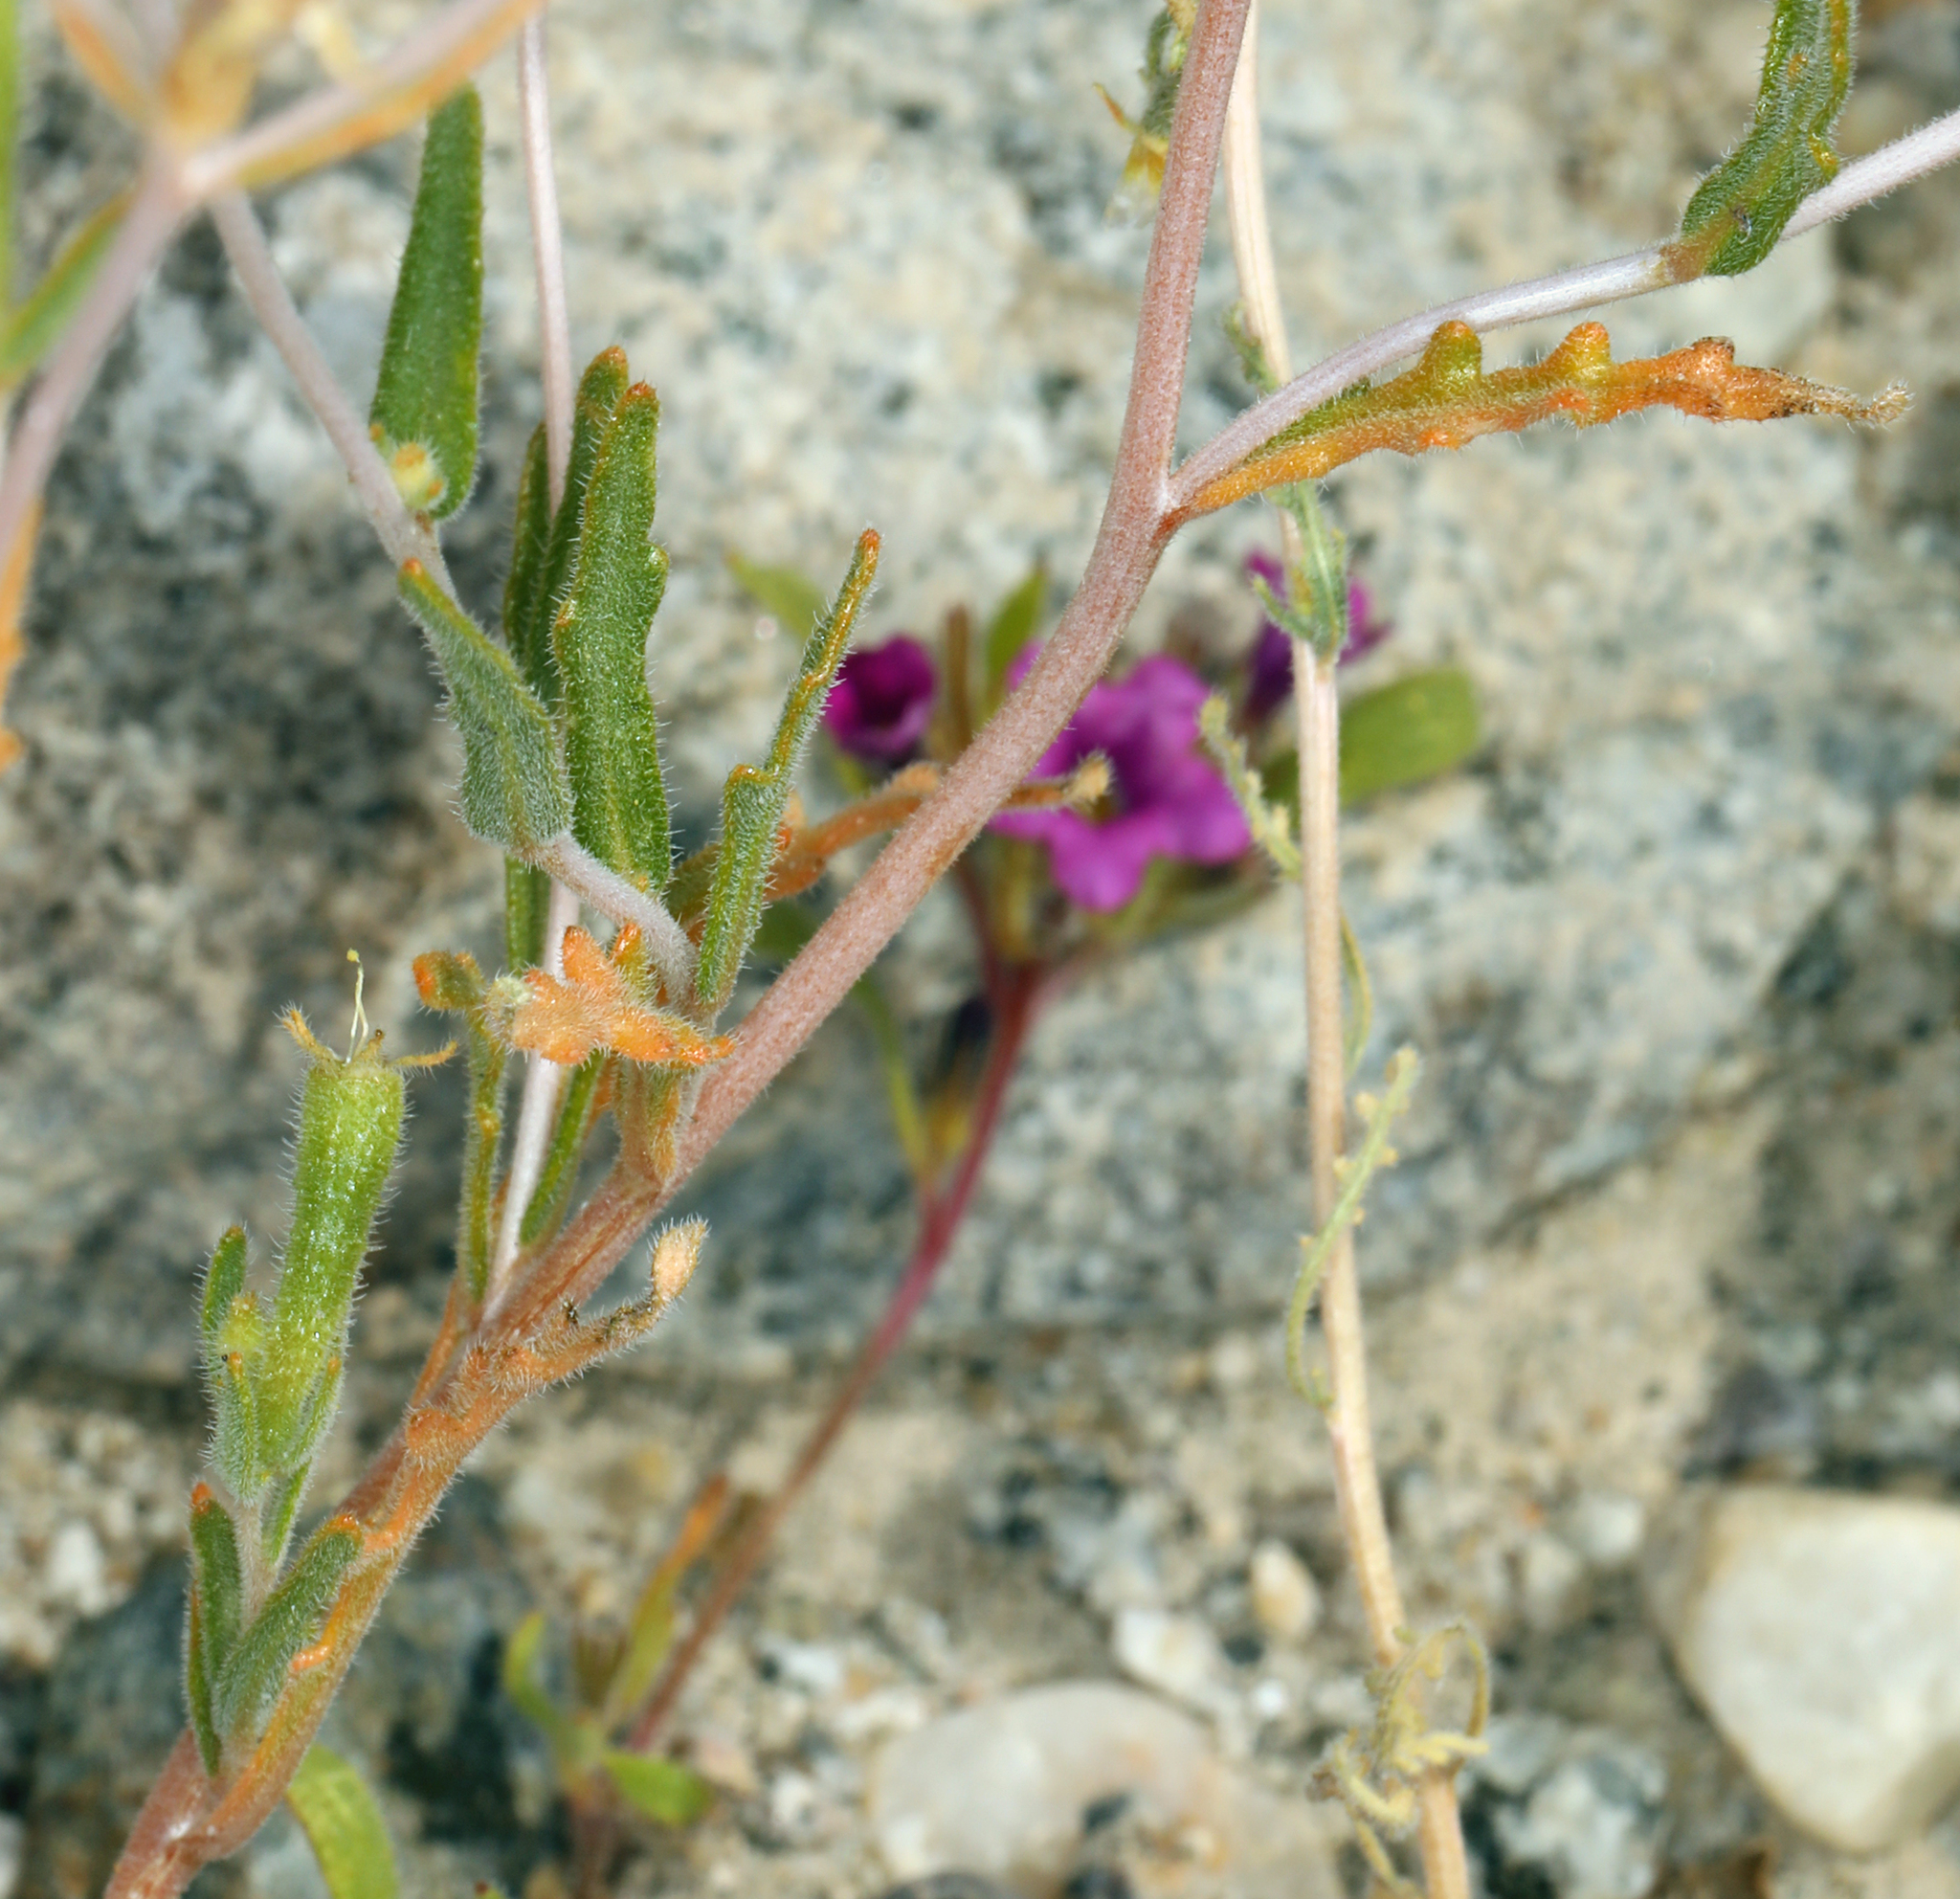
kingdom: Plantae
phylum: Tracheophyta
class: Magnoliopsida
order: Cornales
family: Loasaceae
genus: Mentzelia
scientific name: Mentzelia albicaulis
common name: White-stem blazingstar
